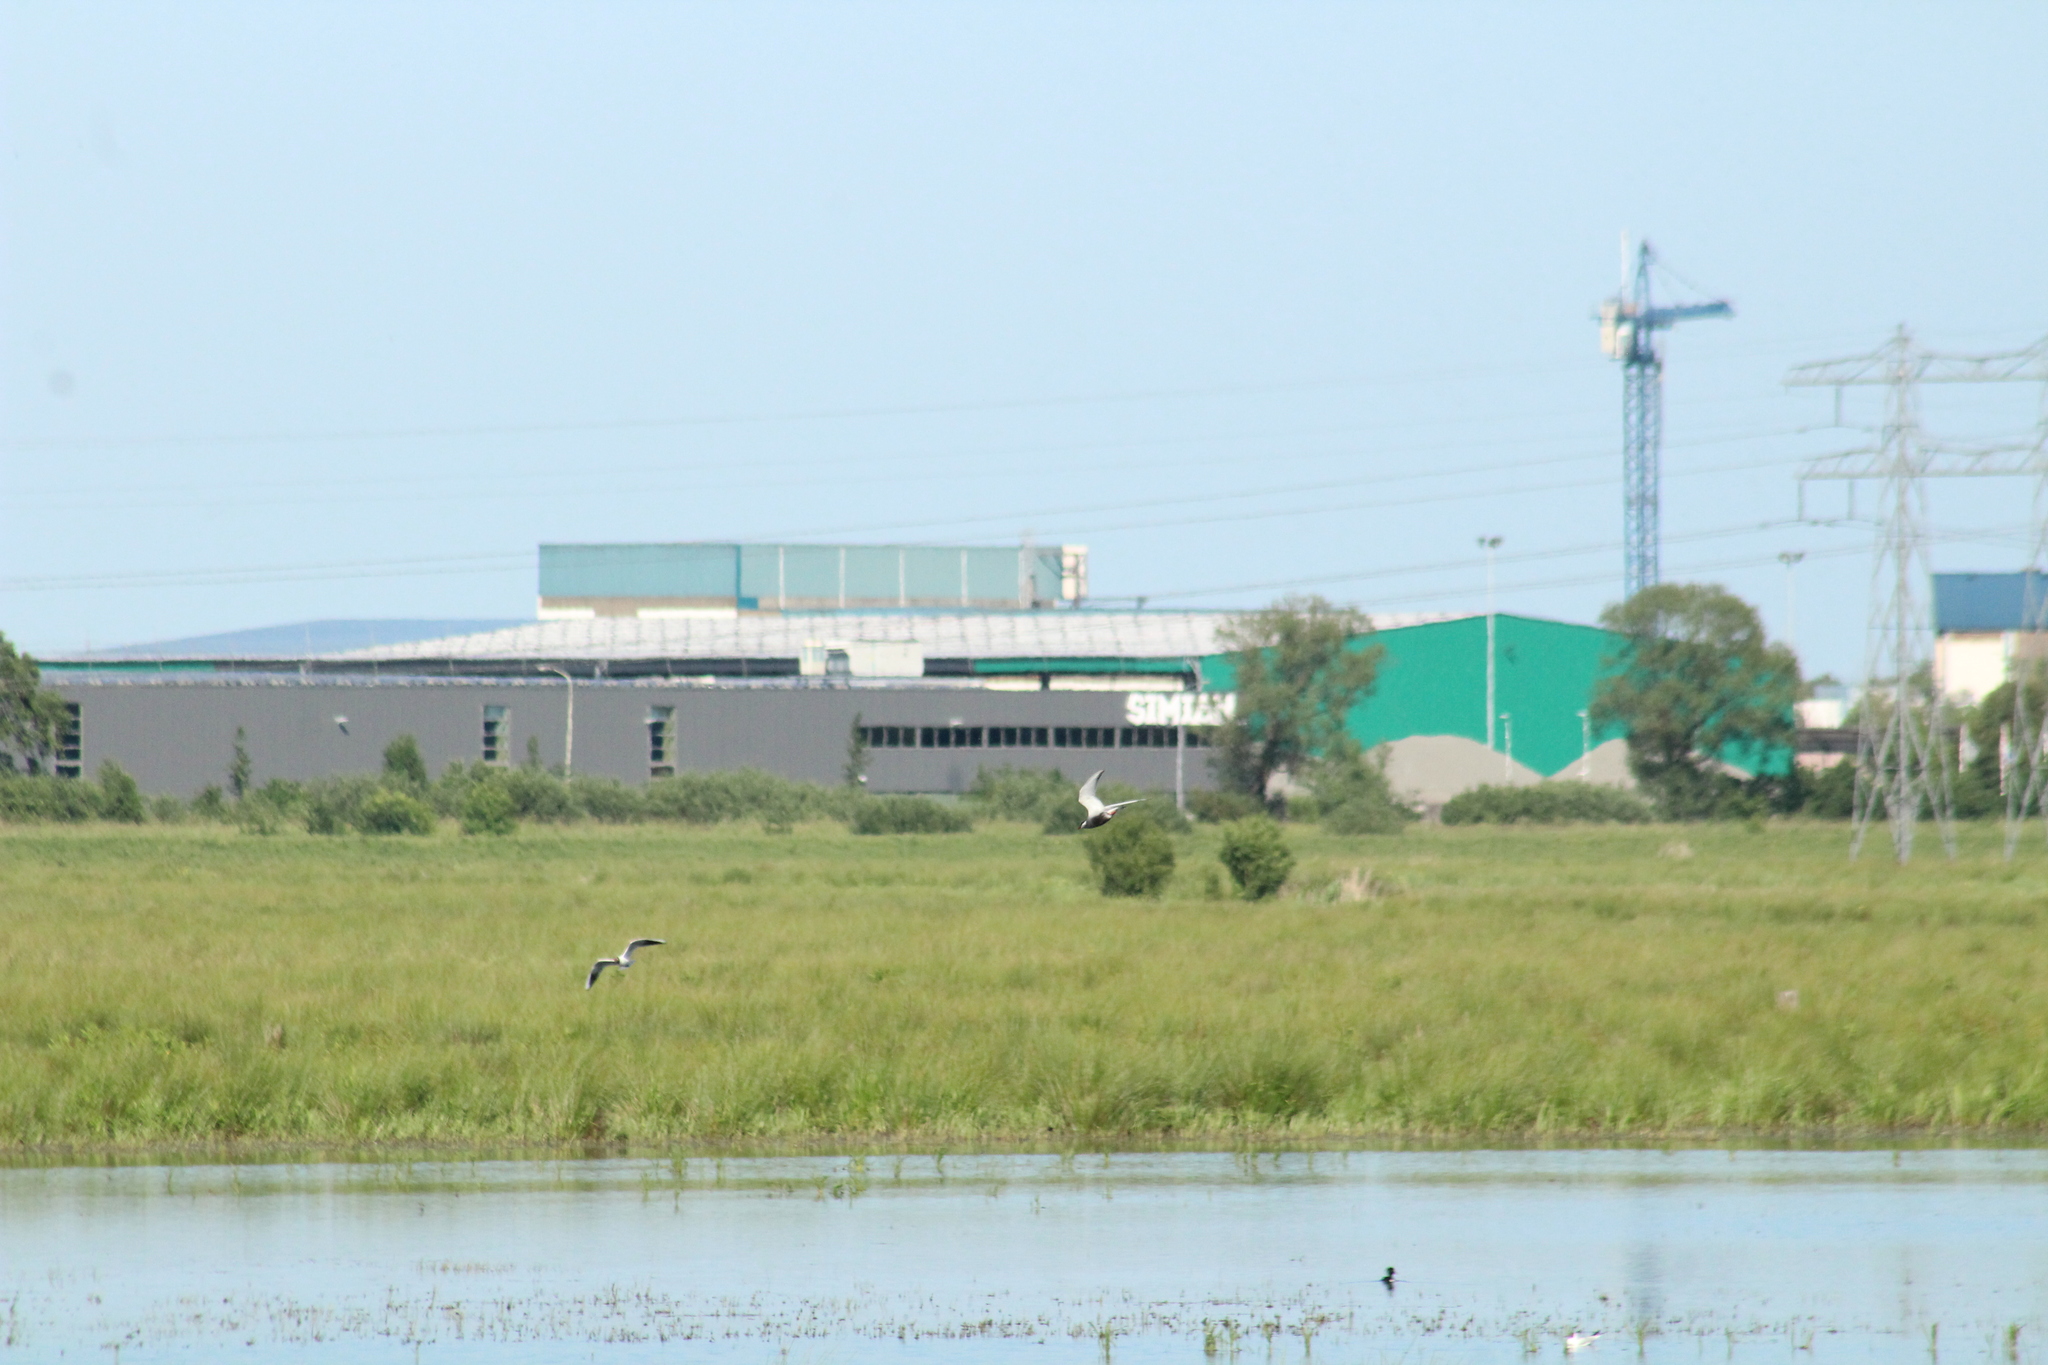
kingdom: Animalia
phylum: Chordata
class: Aves
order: Charadriiformes
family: Laridae
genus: Chlidonias
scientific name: Chlidonias hybrida
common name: Whiskered tern
